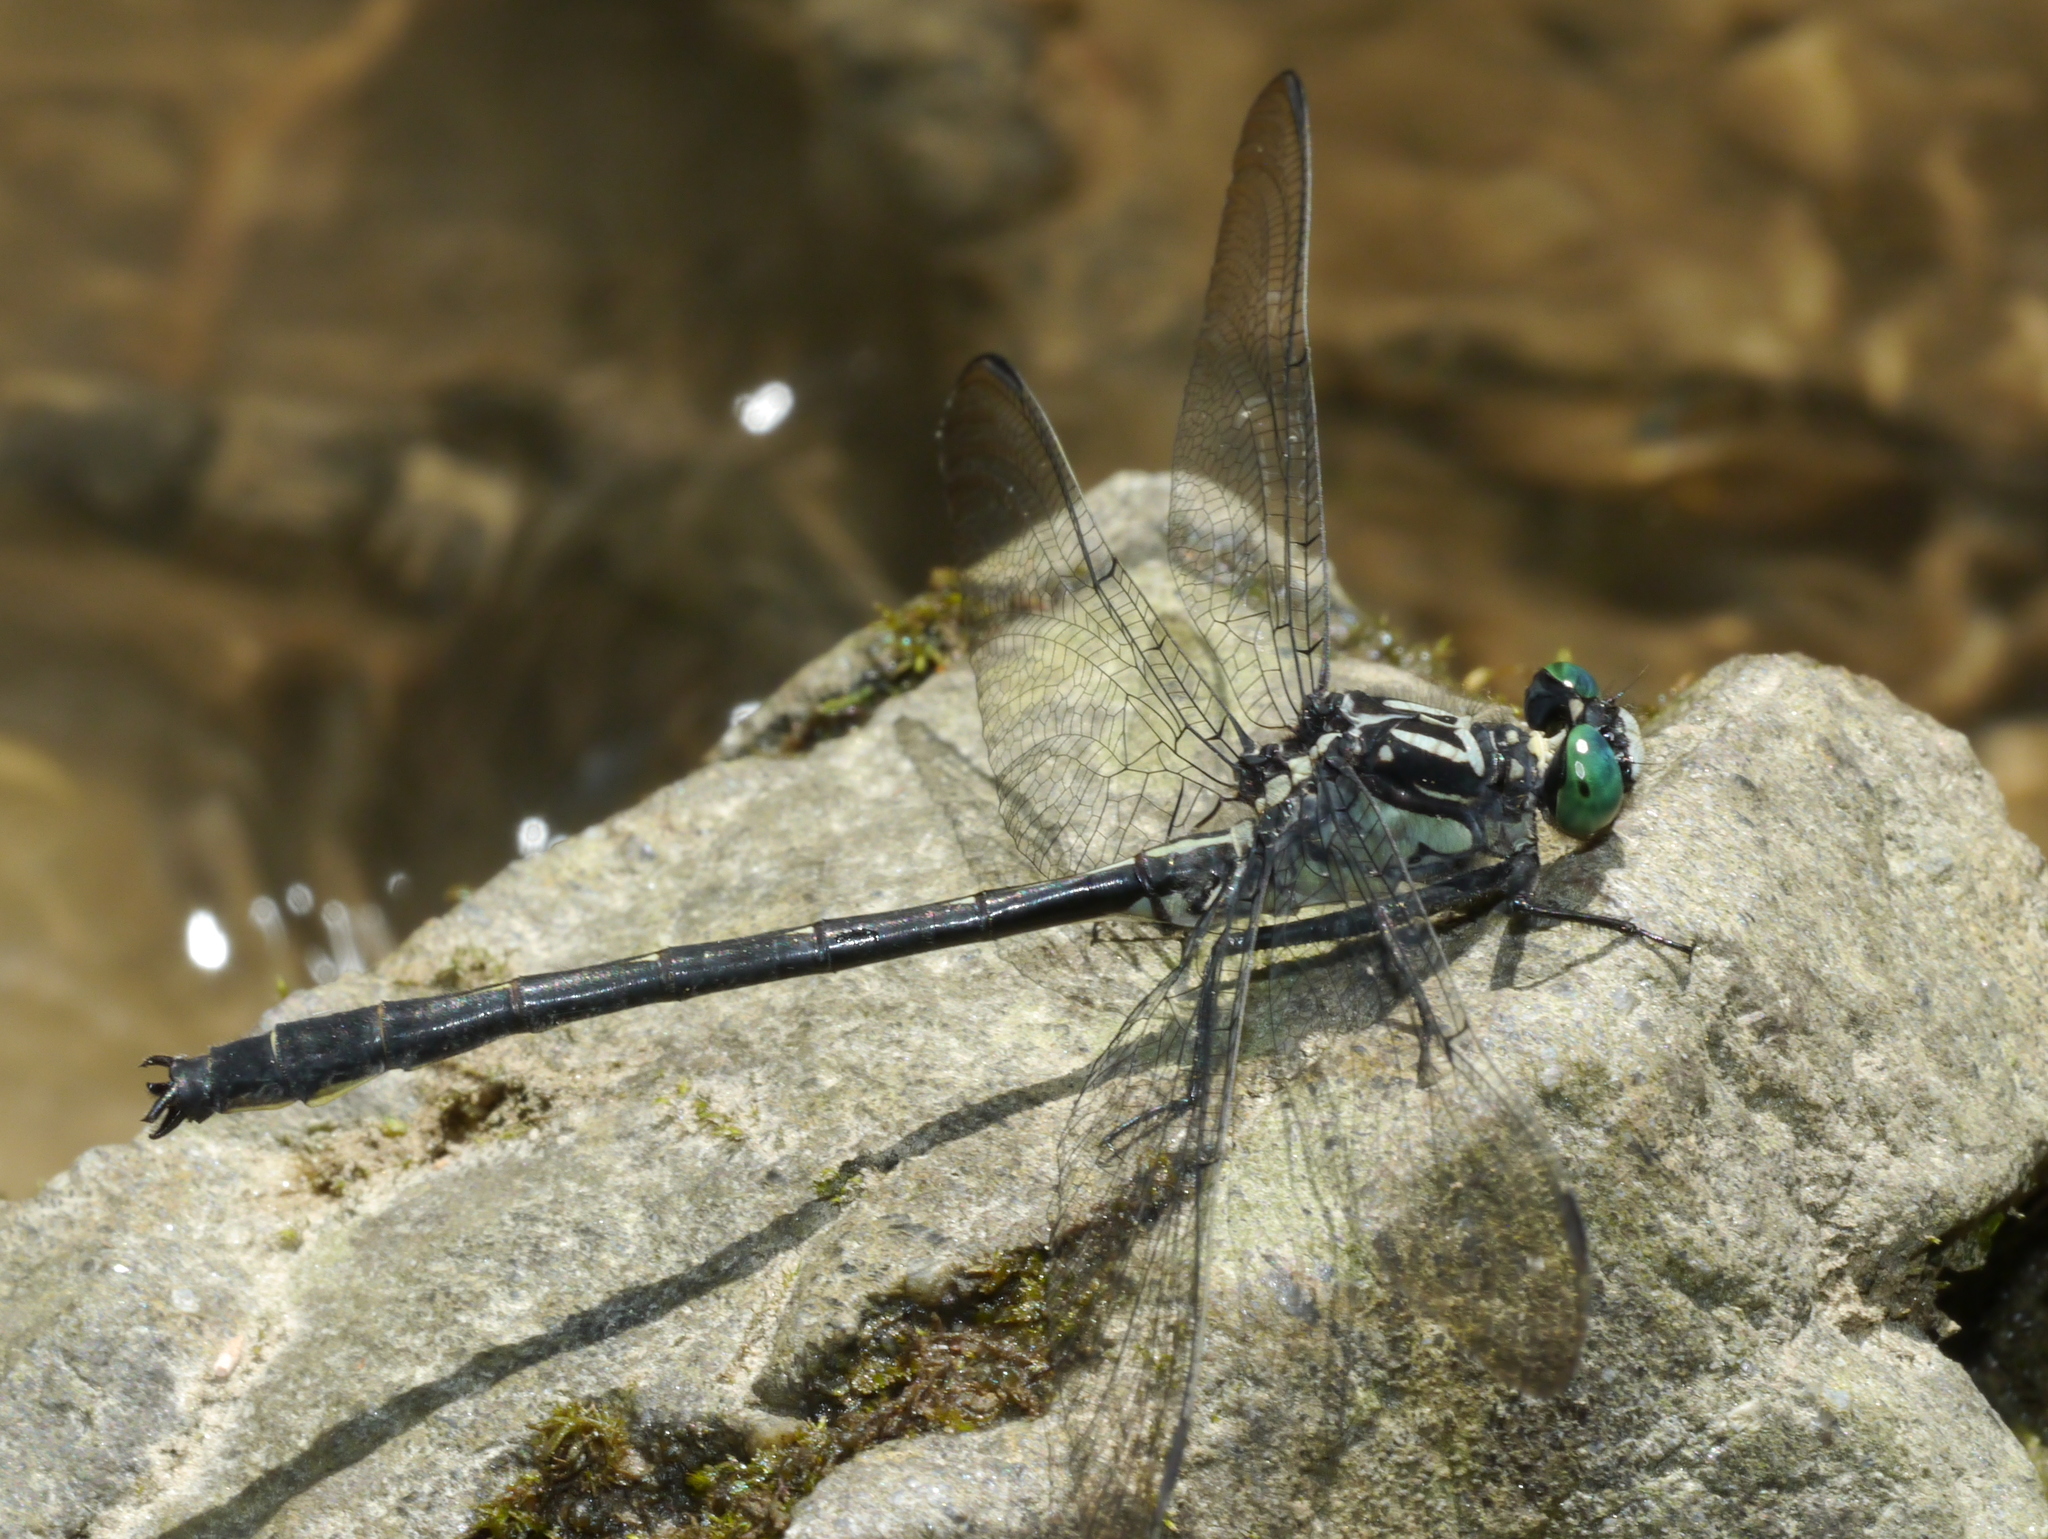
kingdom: Animalia
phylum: Arthropoda
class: Insecta
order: Odonata
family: Gomphidae
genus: Stenogomphurus
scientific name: Stenogomphurus rogersi
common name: Sable clubtail
